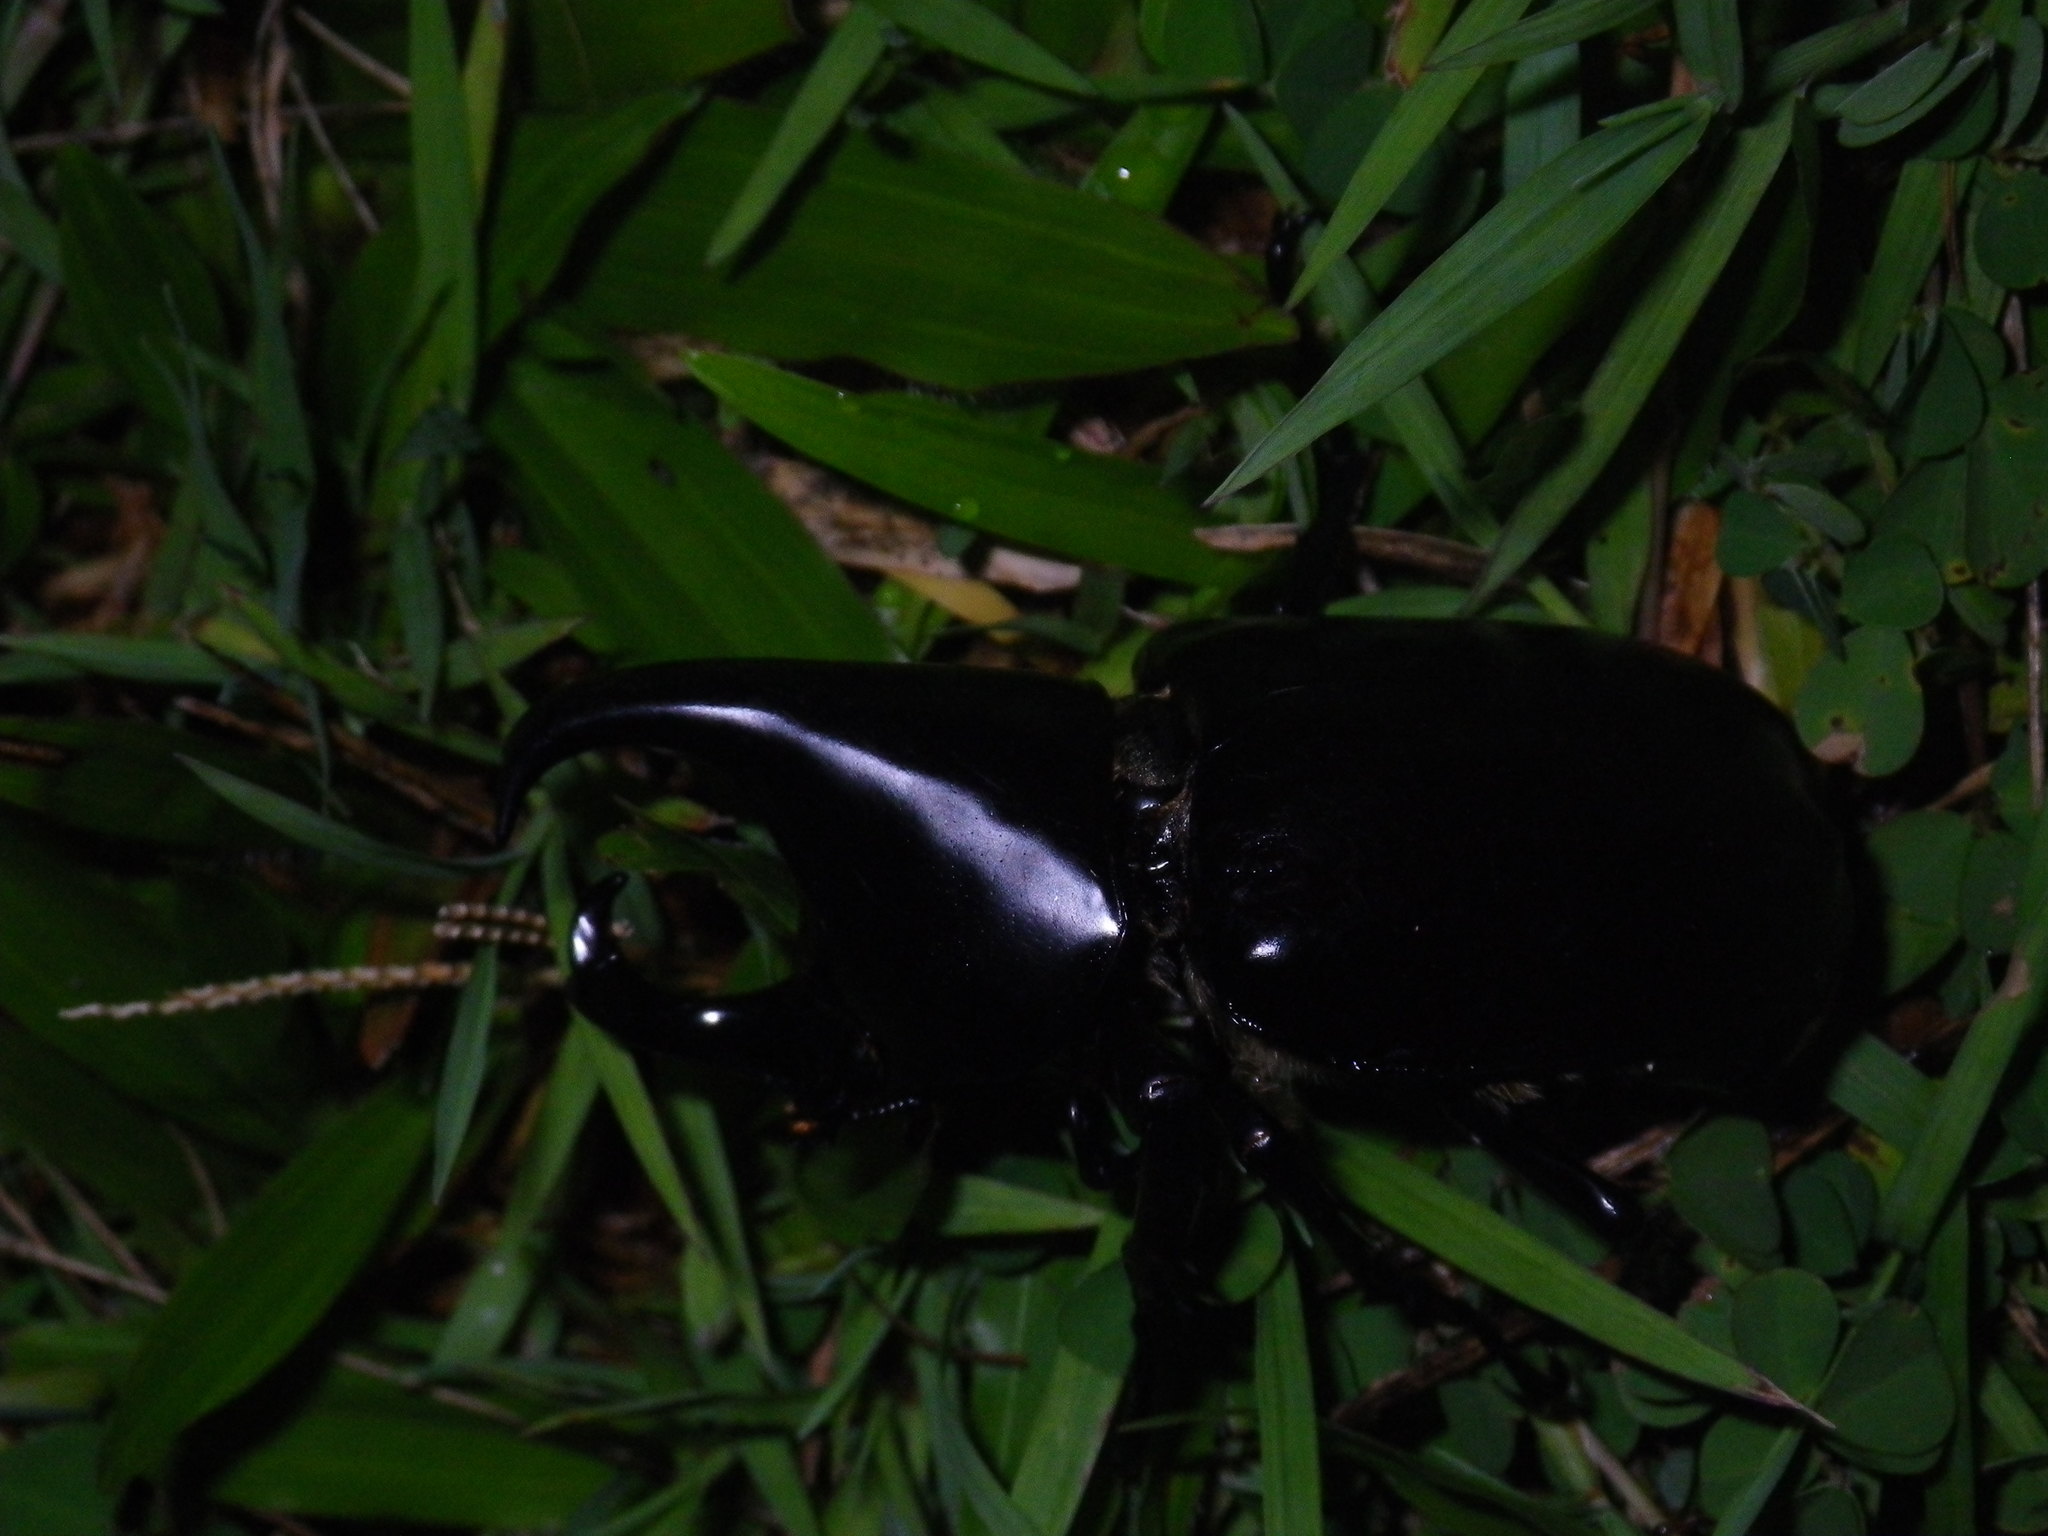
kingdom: Animalia
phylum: Arthropoda
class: Insecta
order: Coleoptera
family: Scarabaeidae
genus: Xylotrupes
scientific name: Xylotrupes australicus
